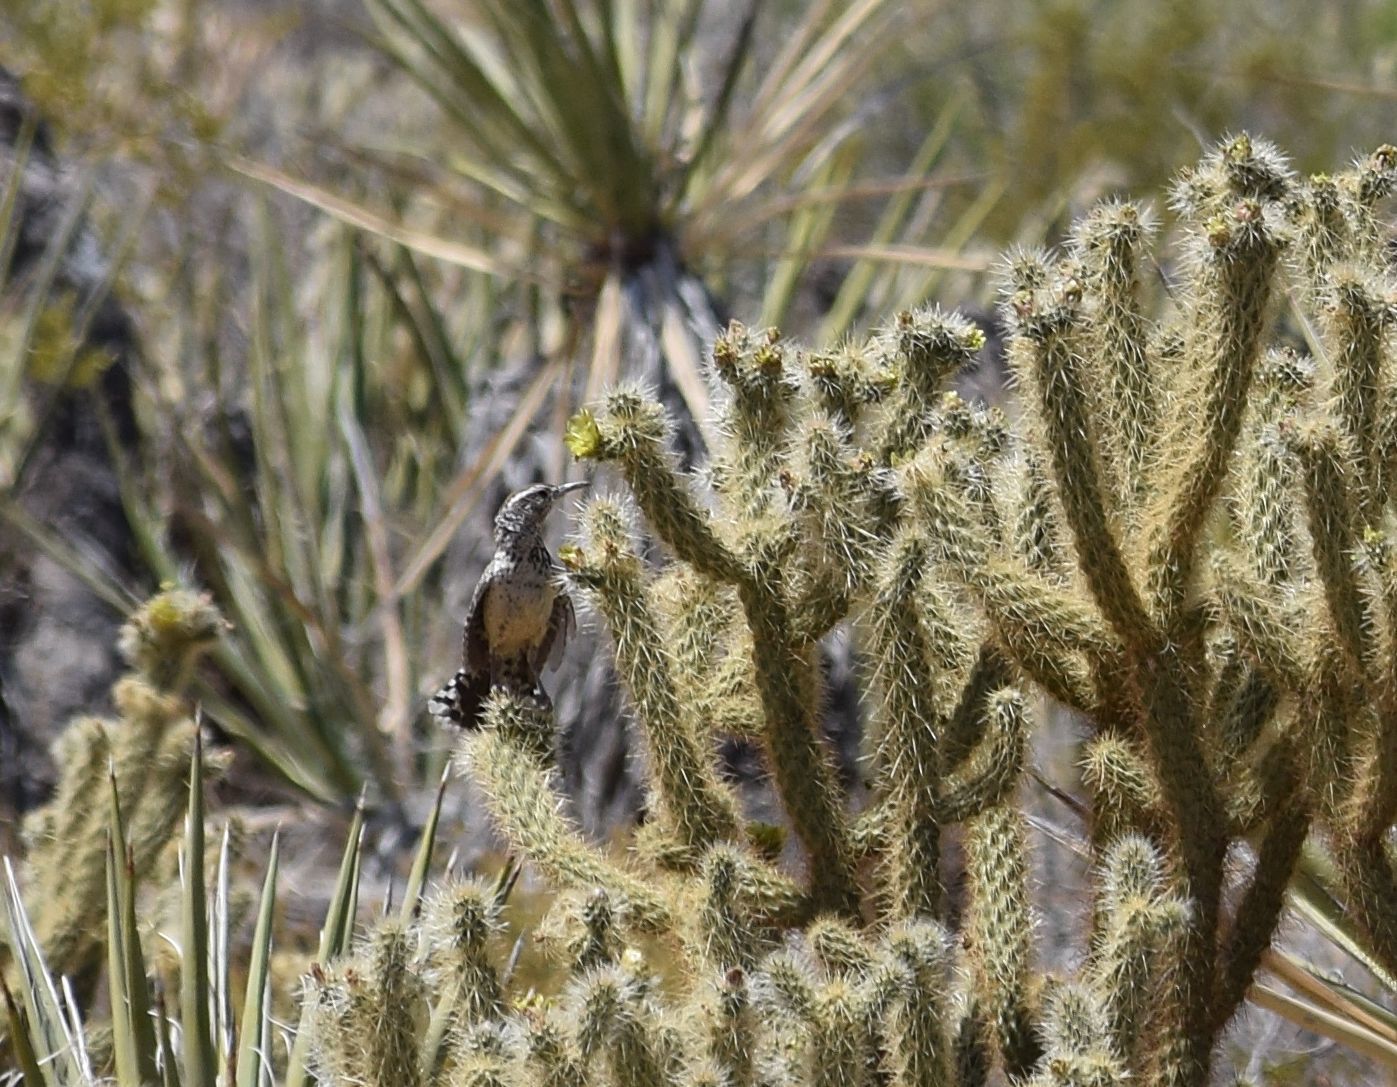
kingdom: Animalia
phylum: Chordata
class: Aves
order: Passeriformes
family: Troglodytidae
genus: Campylorhynchus
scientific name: Campylorhynchus brunneicapillus
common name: Cactus wren
